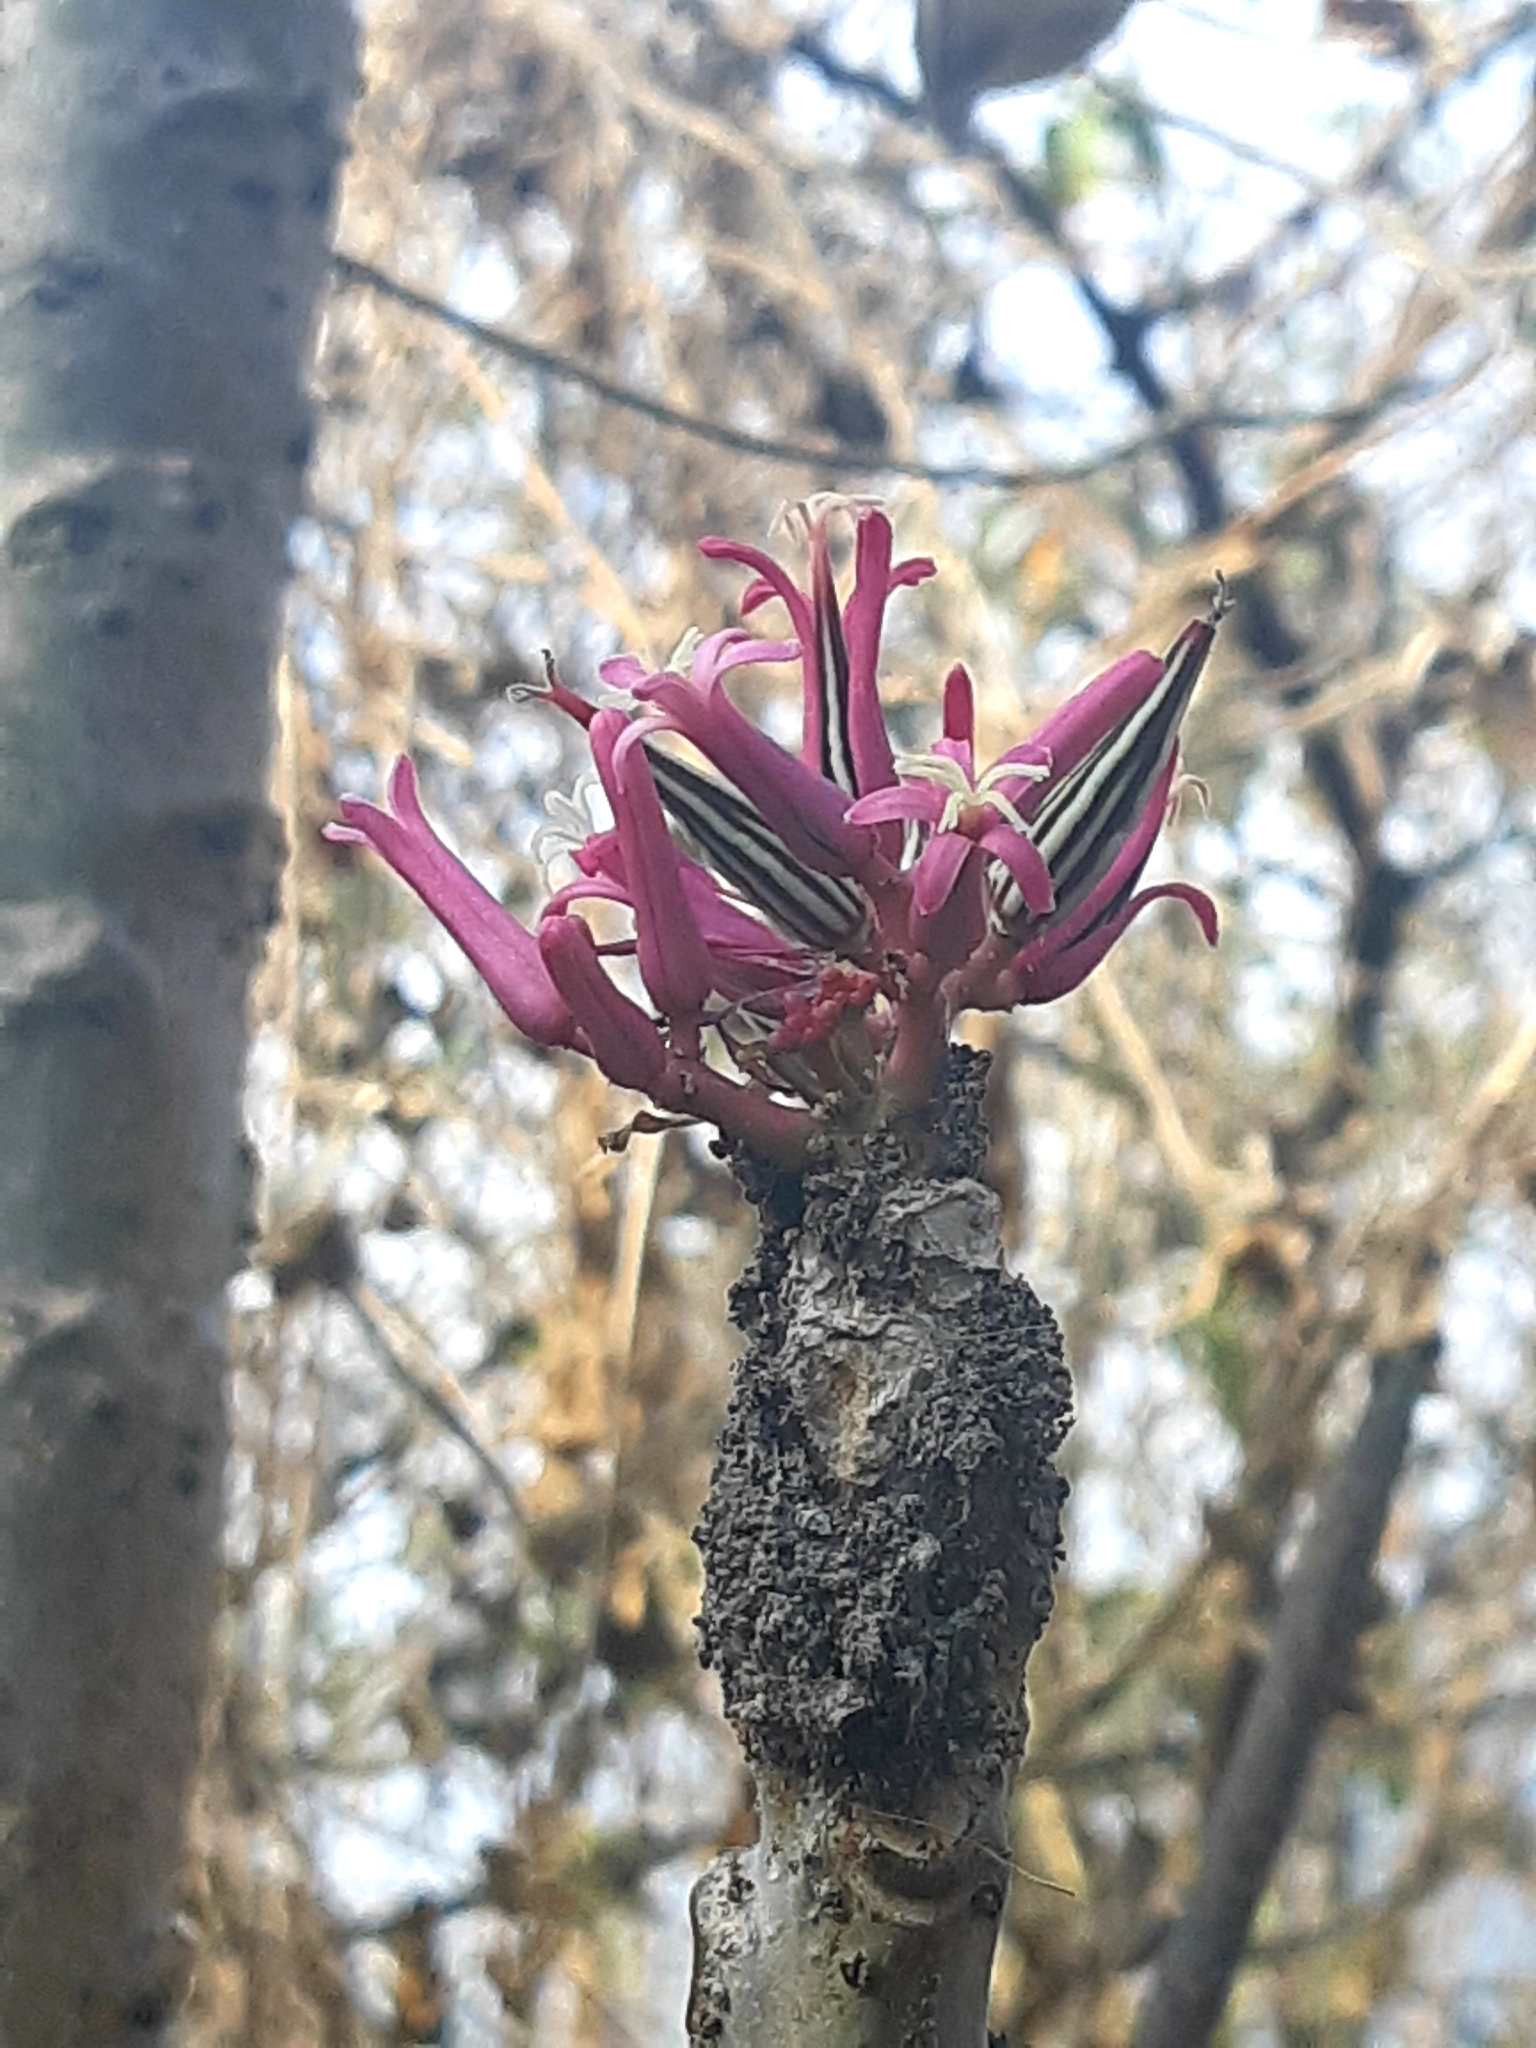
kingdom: Plantae
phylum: Tracheophyta
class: Magnoliopsida
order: Brassicales
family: Caricaceae
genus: Vasconcellea
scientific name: Vasconcellea parviflora
